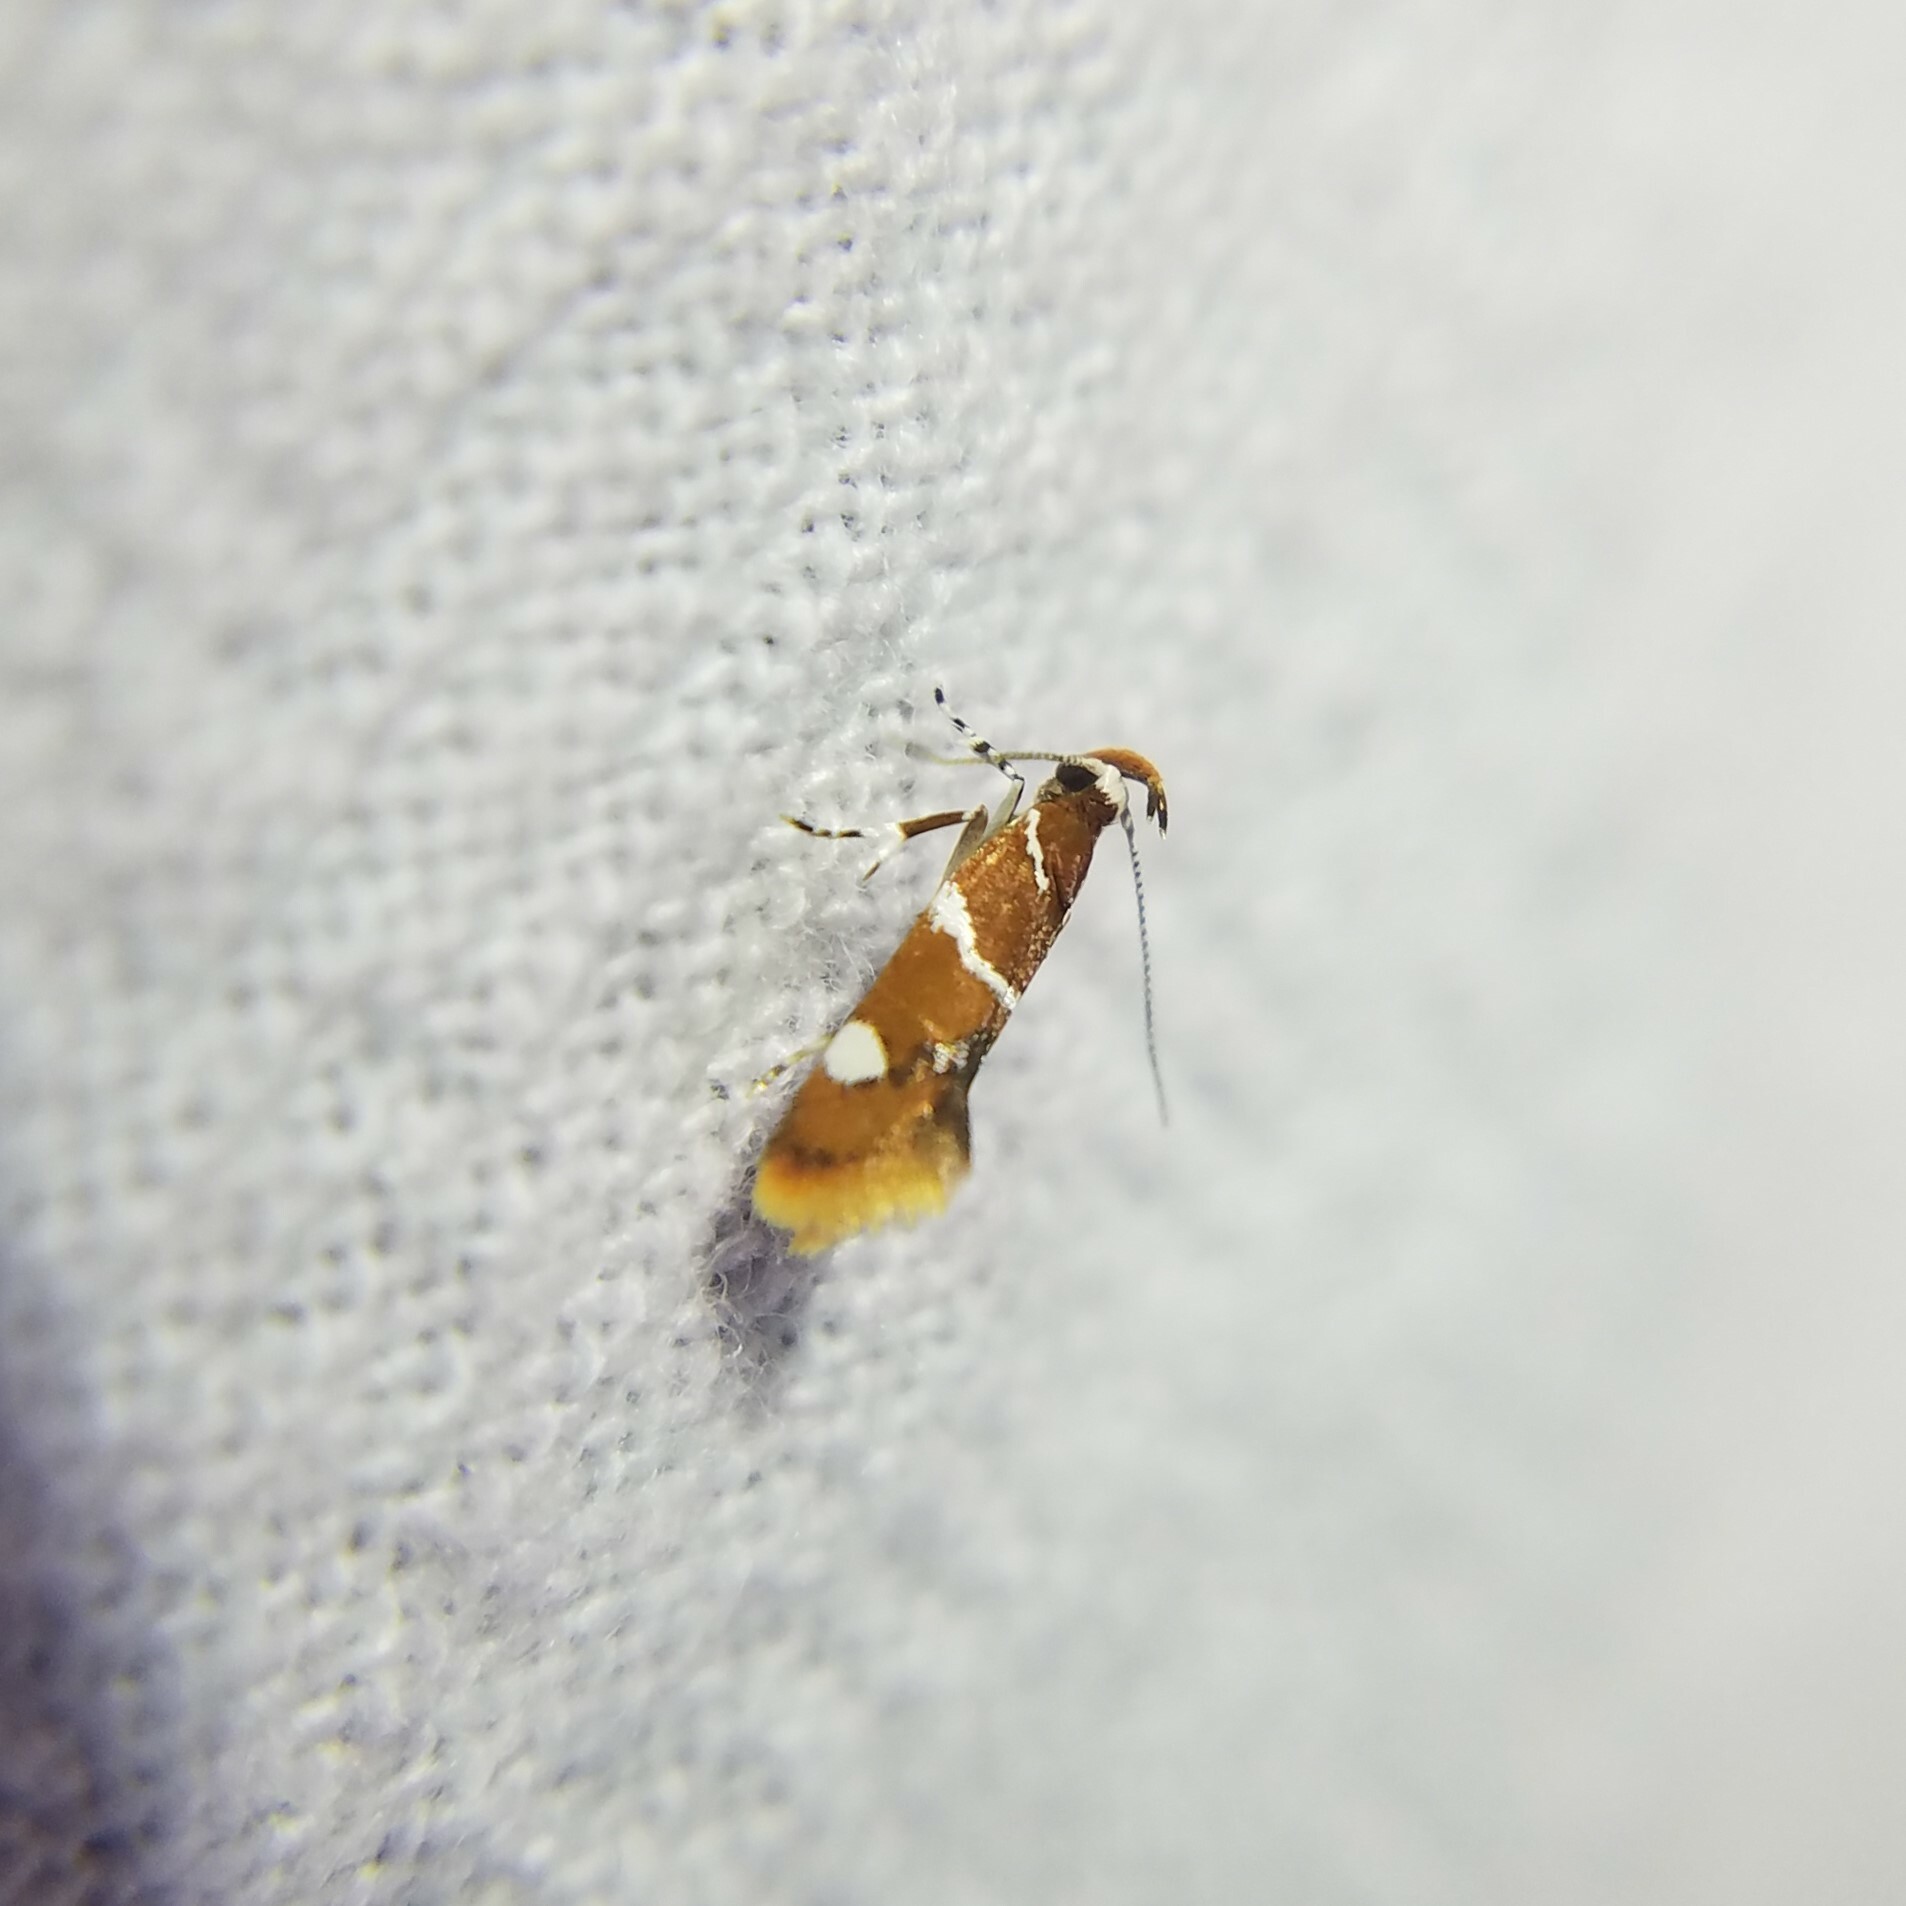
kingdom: Animalia
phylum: Arthropoda
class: Insecta
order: Lepidoptera
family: Oecophoridae
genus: Promalactis
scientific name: Promalactis suzukiella
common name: Moth
